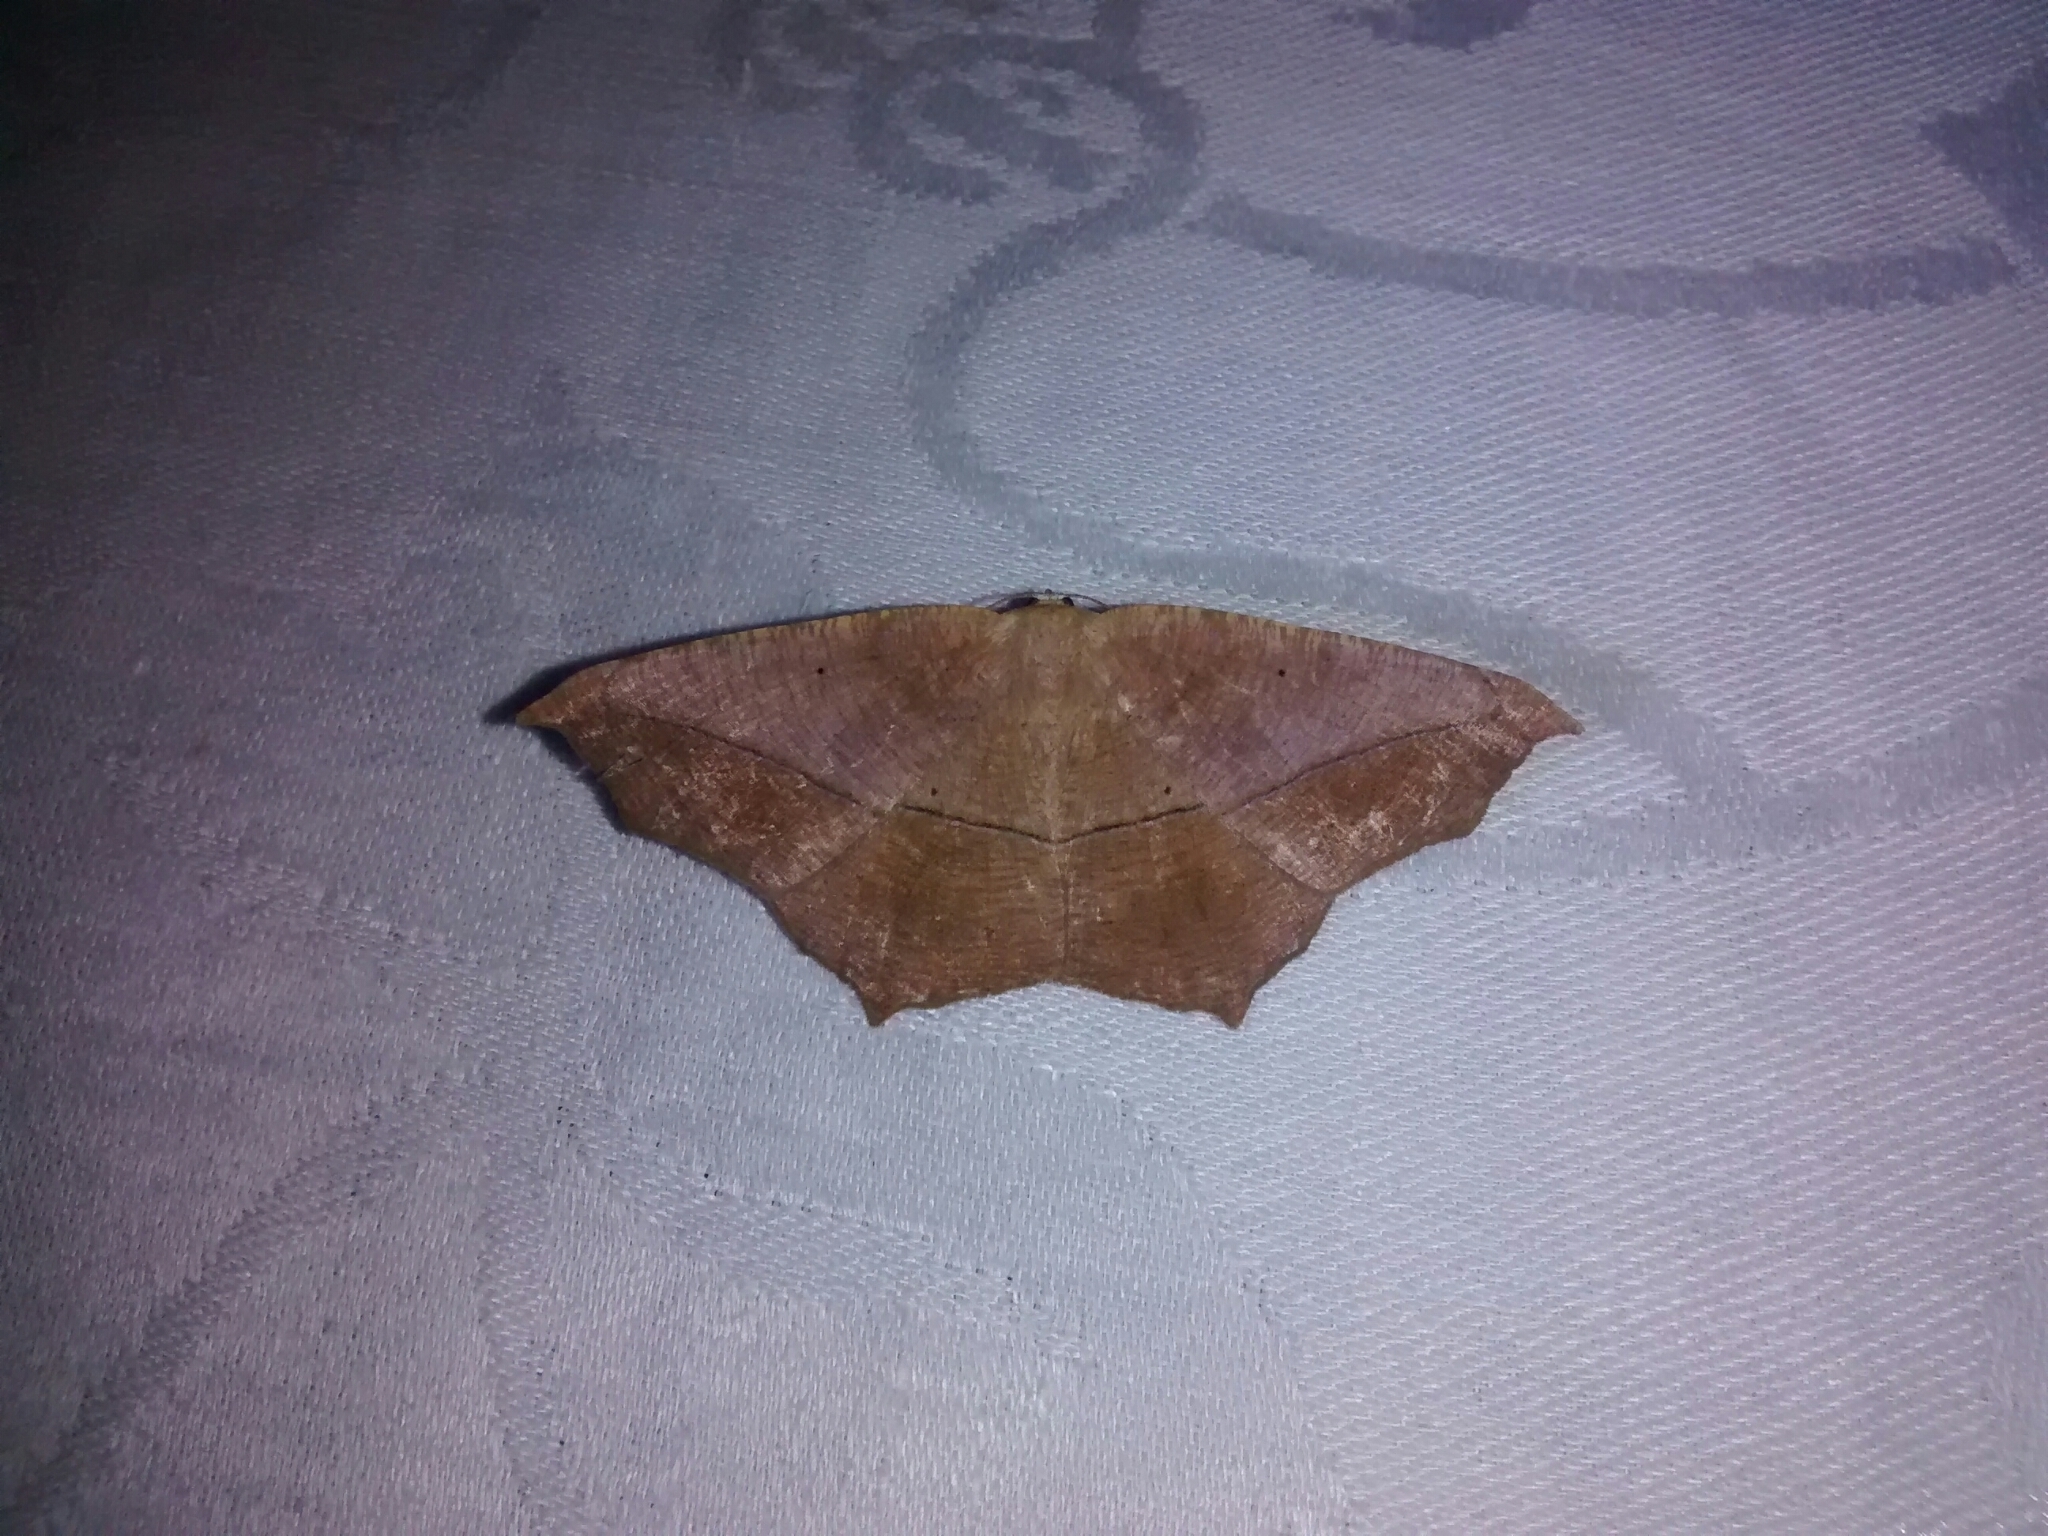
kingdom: Animalia
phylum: Arthropoda
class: Insecta
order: Lepidoptera
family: Geometridae
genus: Prochoerodes
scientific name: Prochoerodes lineola
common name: Large maple spanworm
